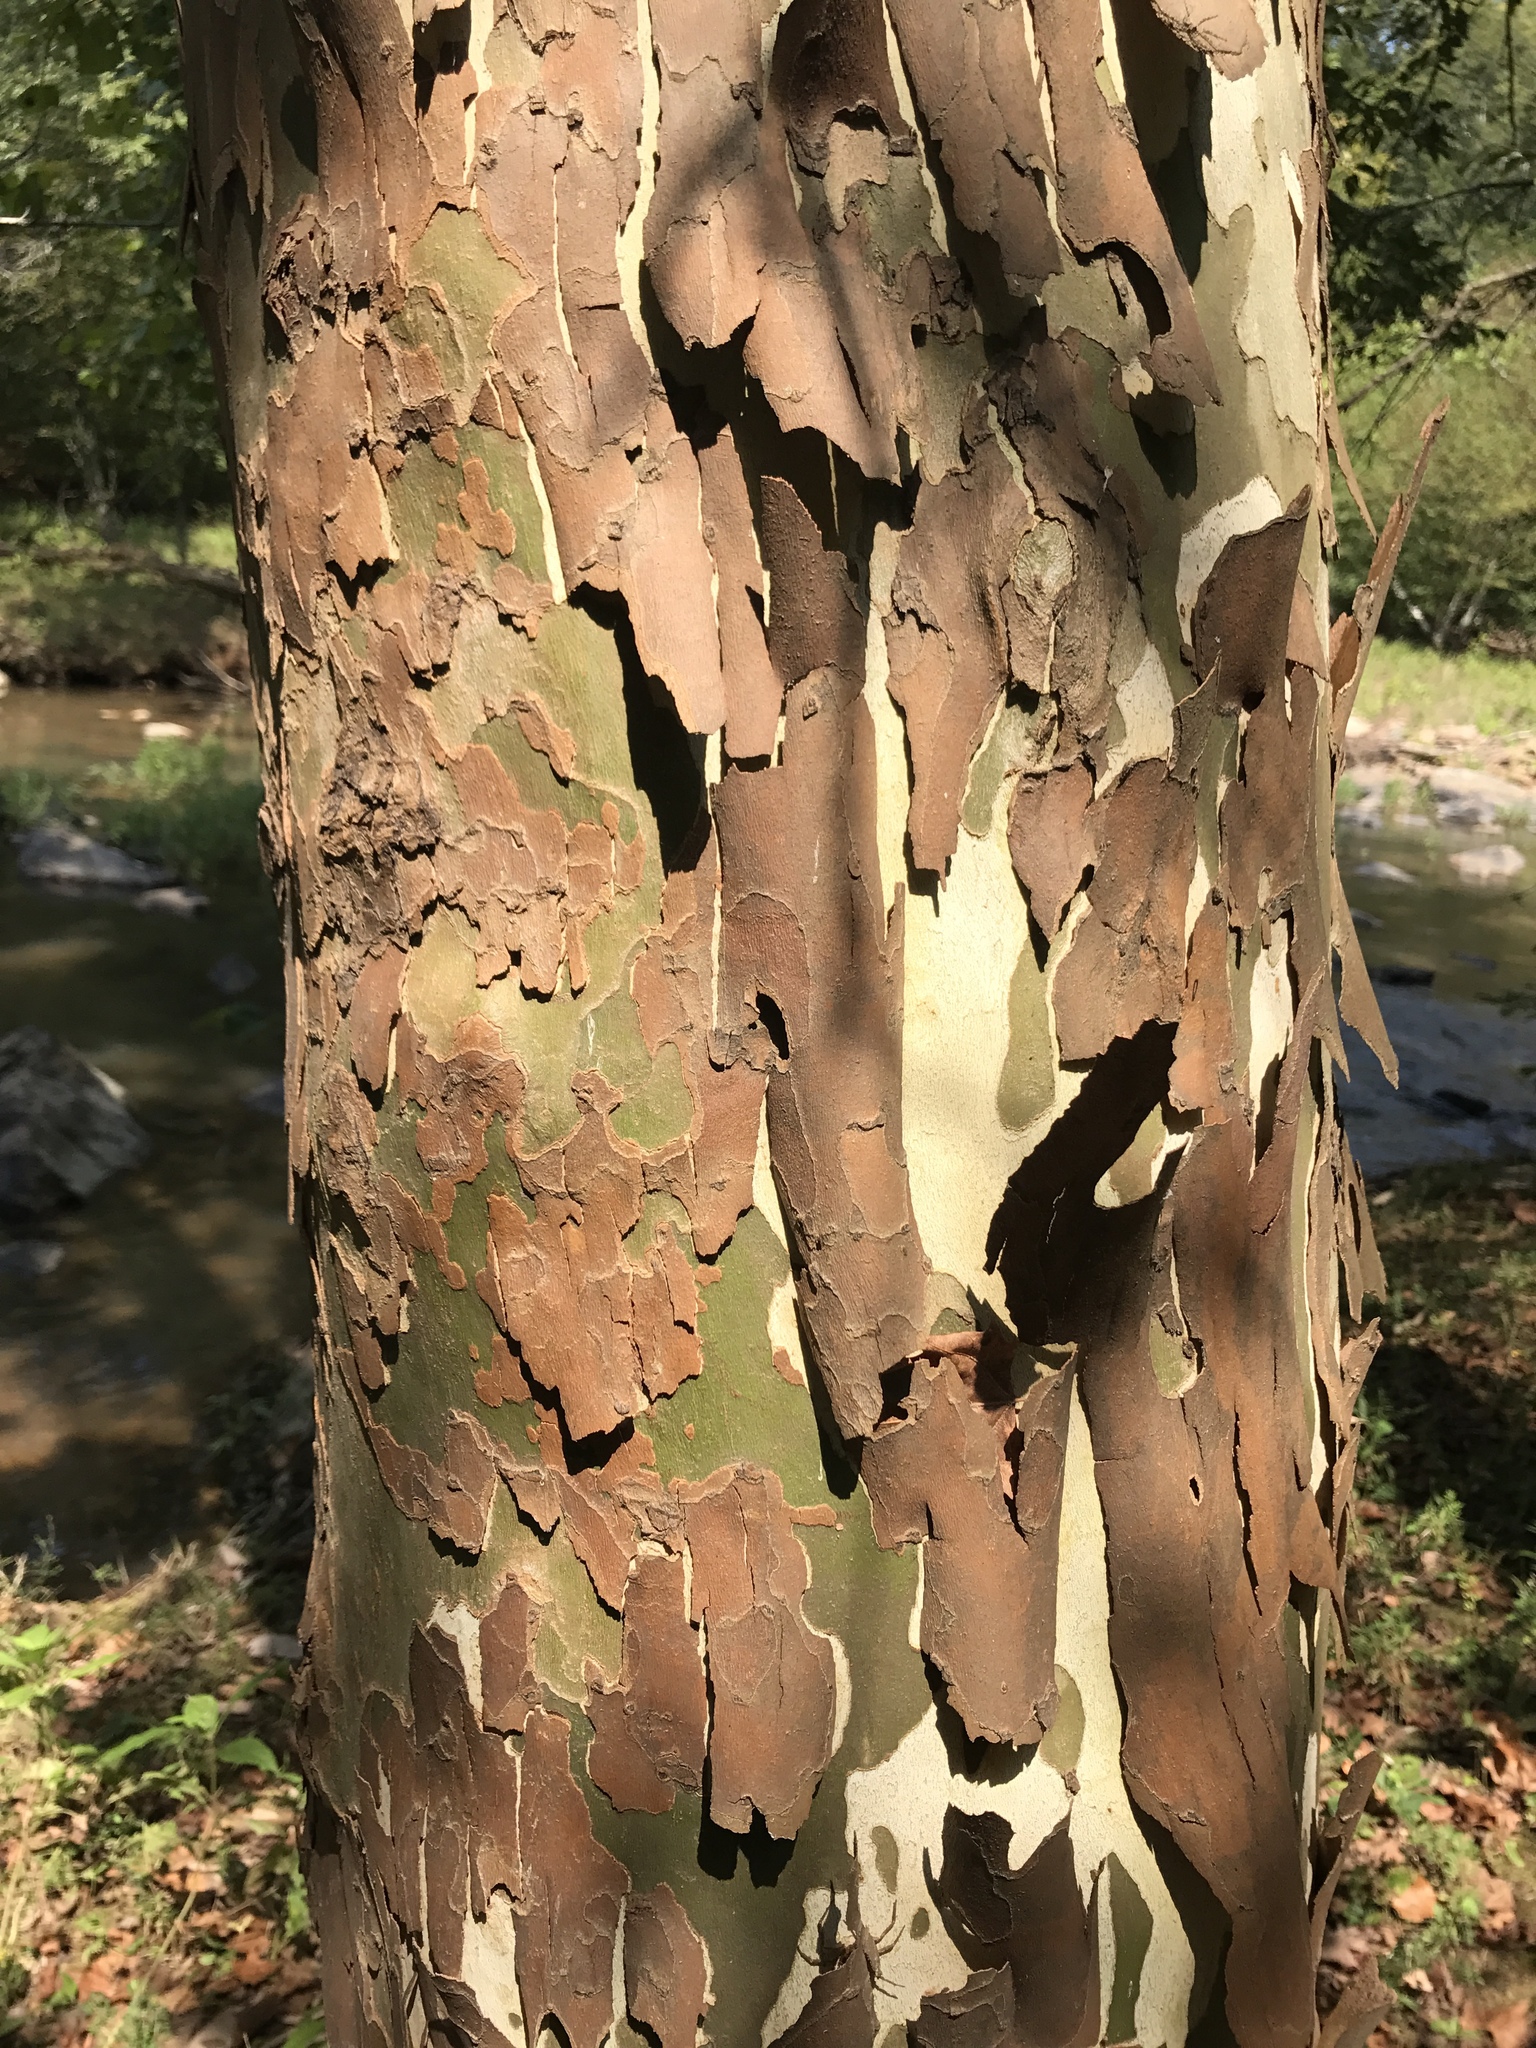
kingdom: Plantae
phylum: Tracheophyta
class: Magnoliopsida
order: Proteales
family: Platanaceae
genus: Platanus
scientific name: Platanus occidentalis
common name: American sycamore
